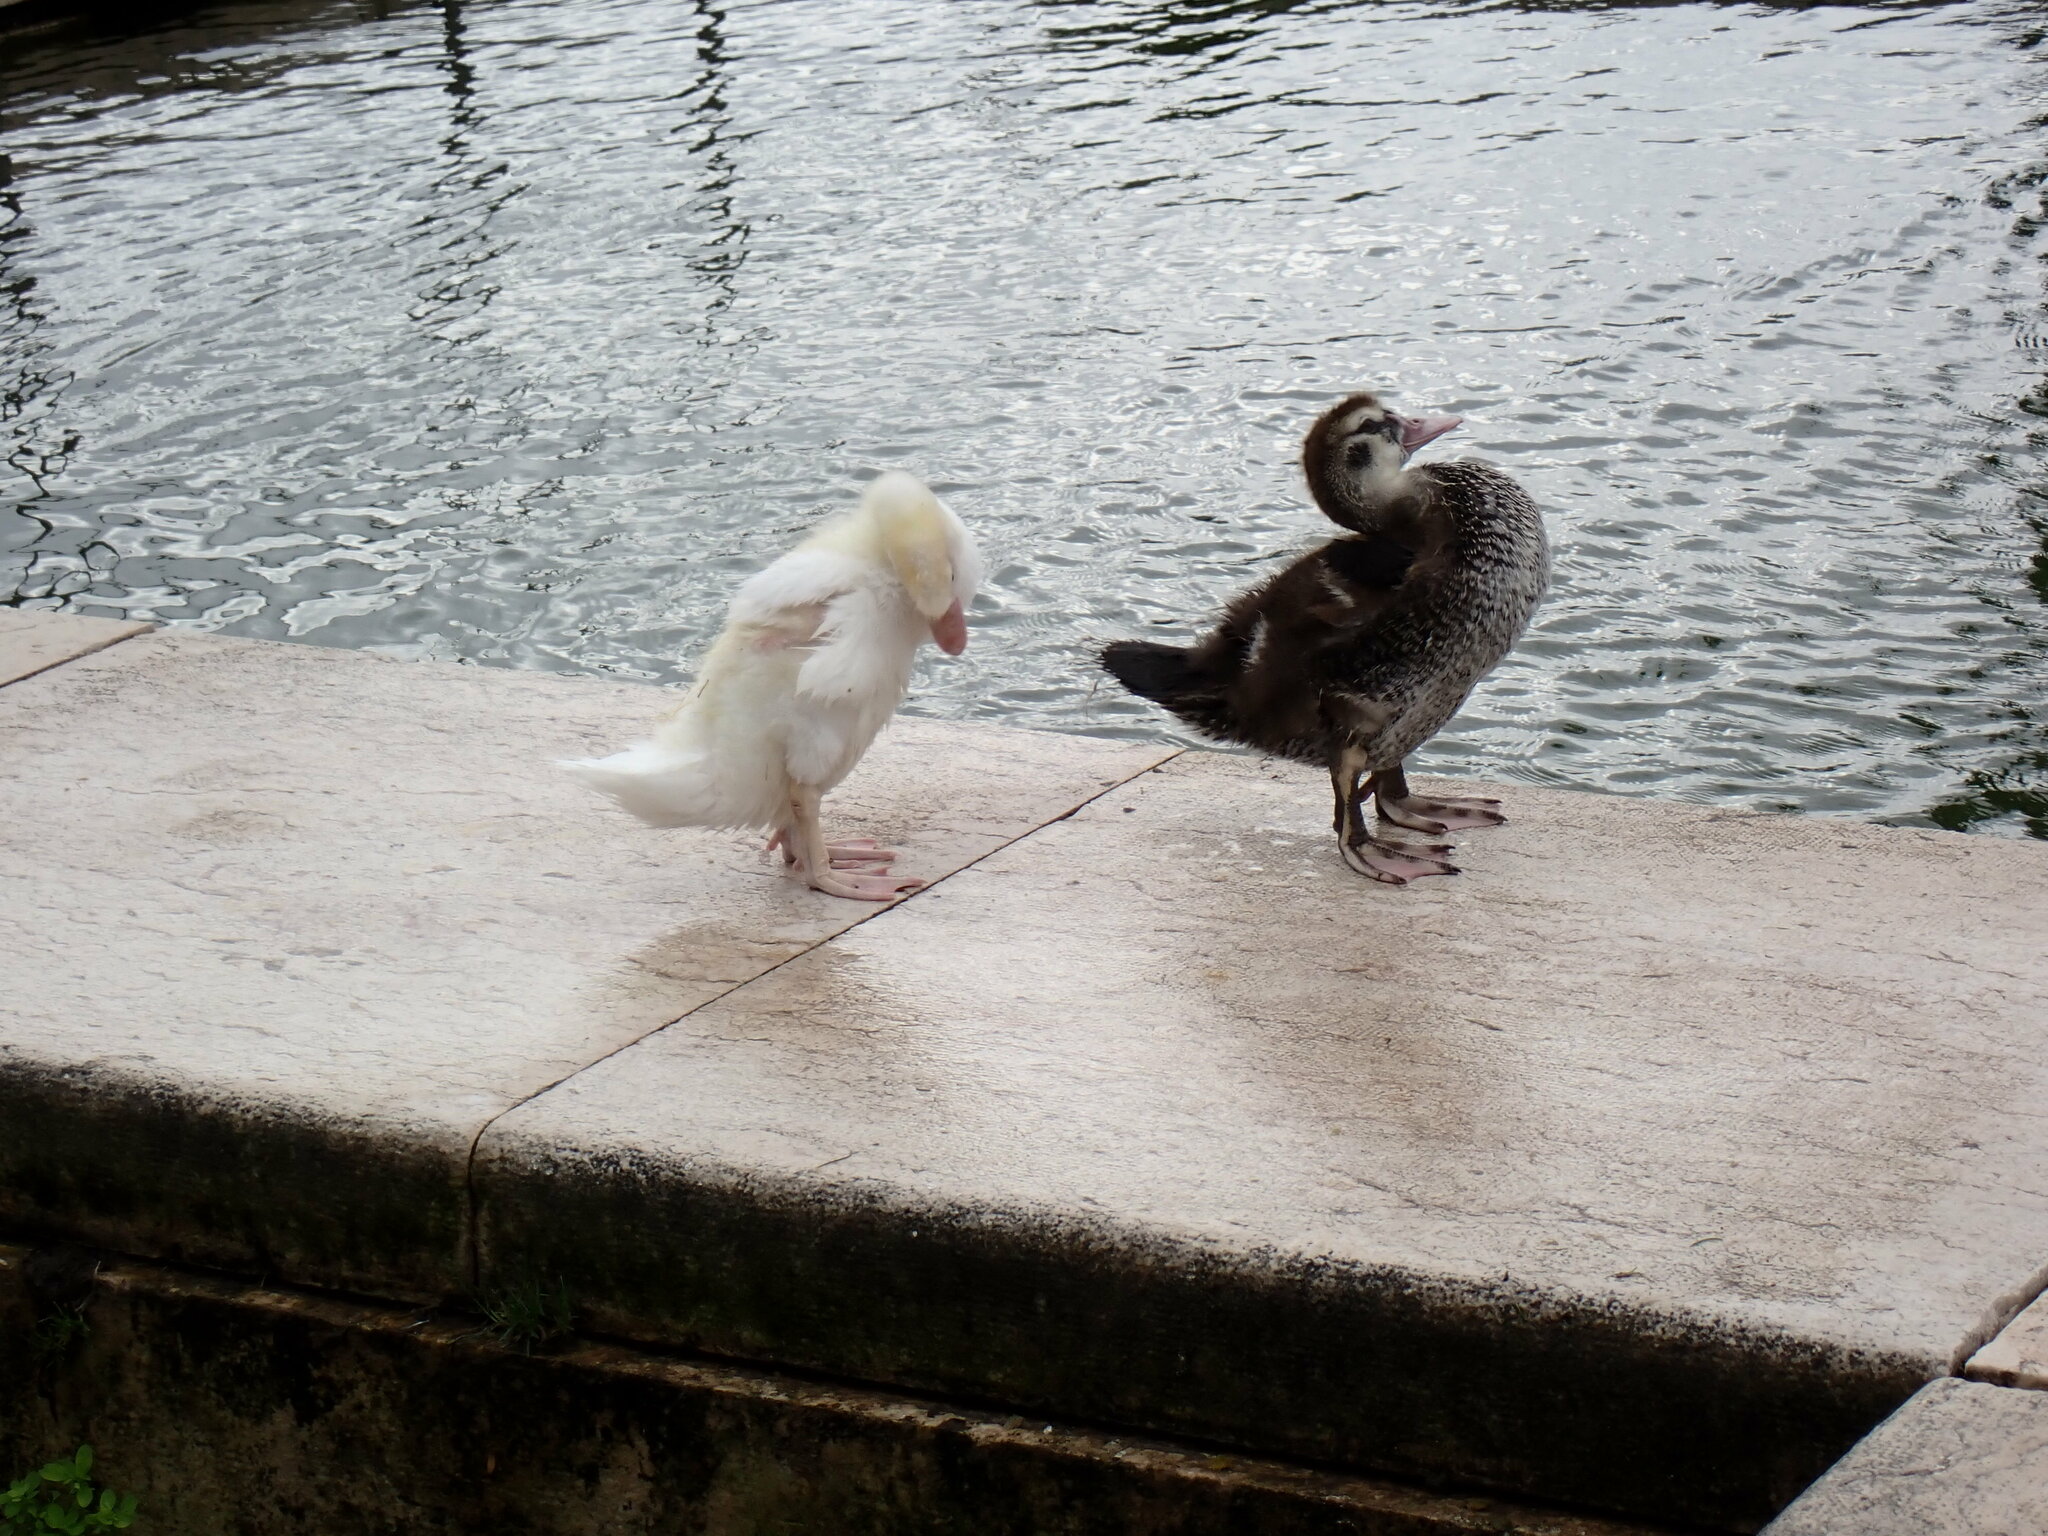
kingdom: Animalia
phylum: Chordata
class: Aves
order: Anseriformes
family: Anatidae
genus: Cairina
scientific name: Cairina moschata
